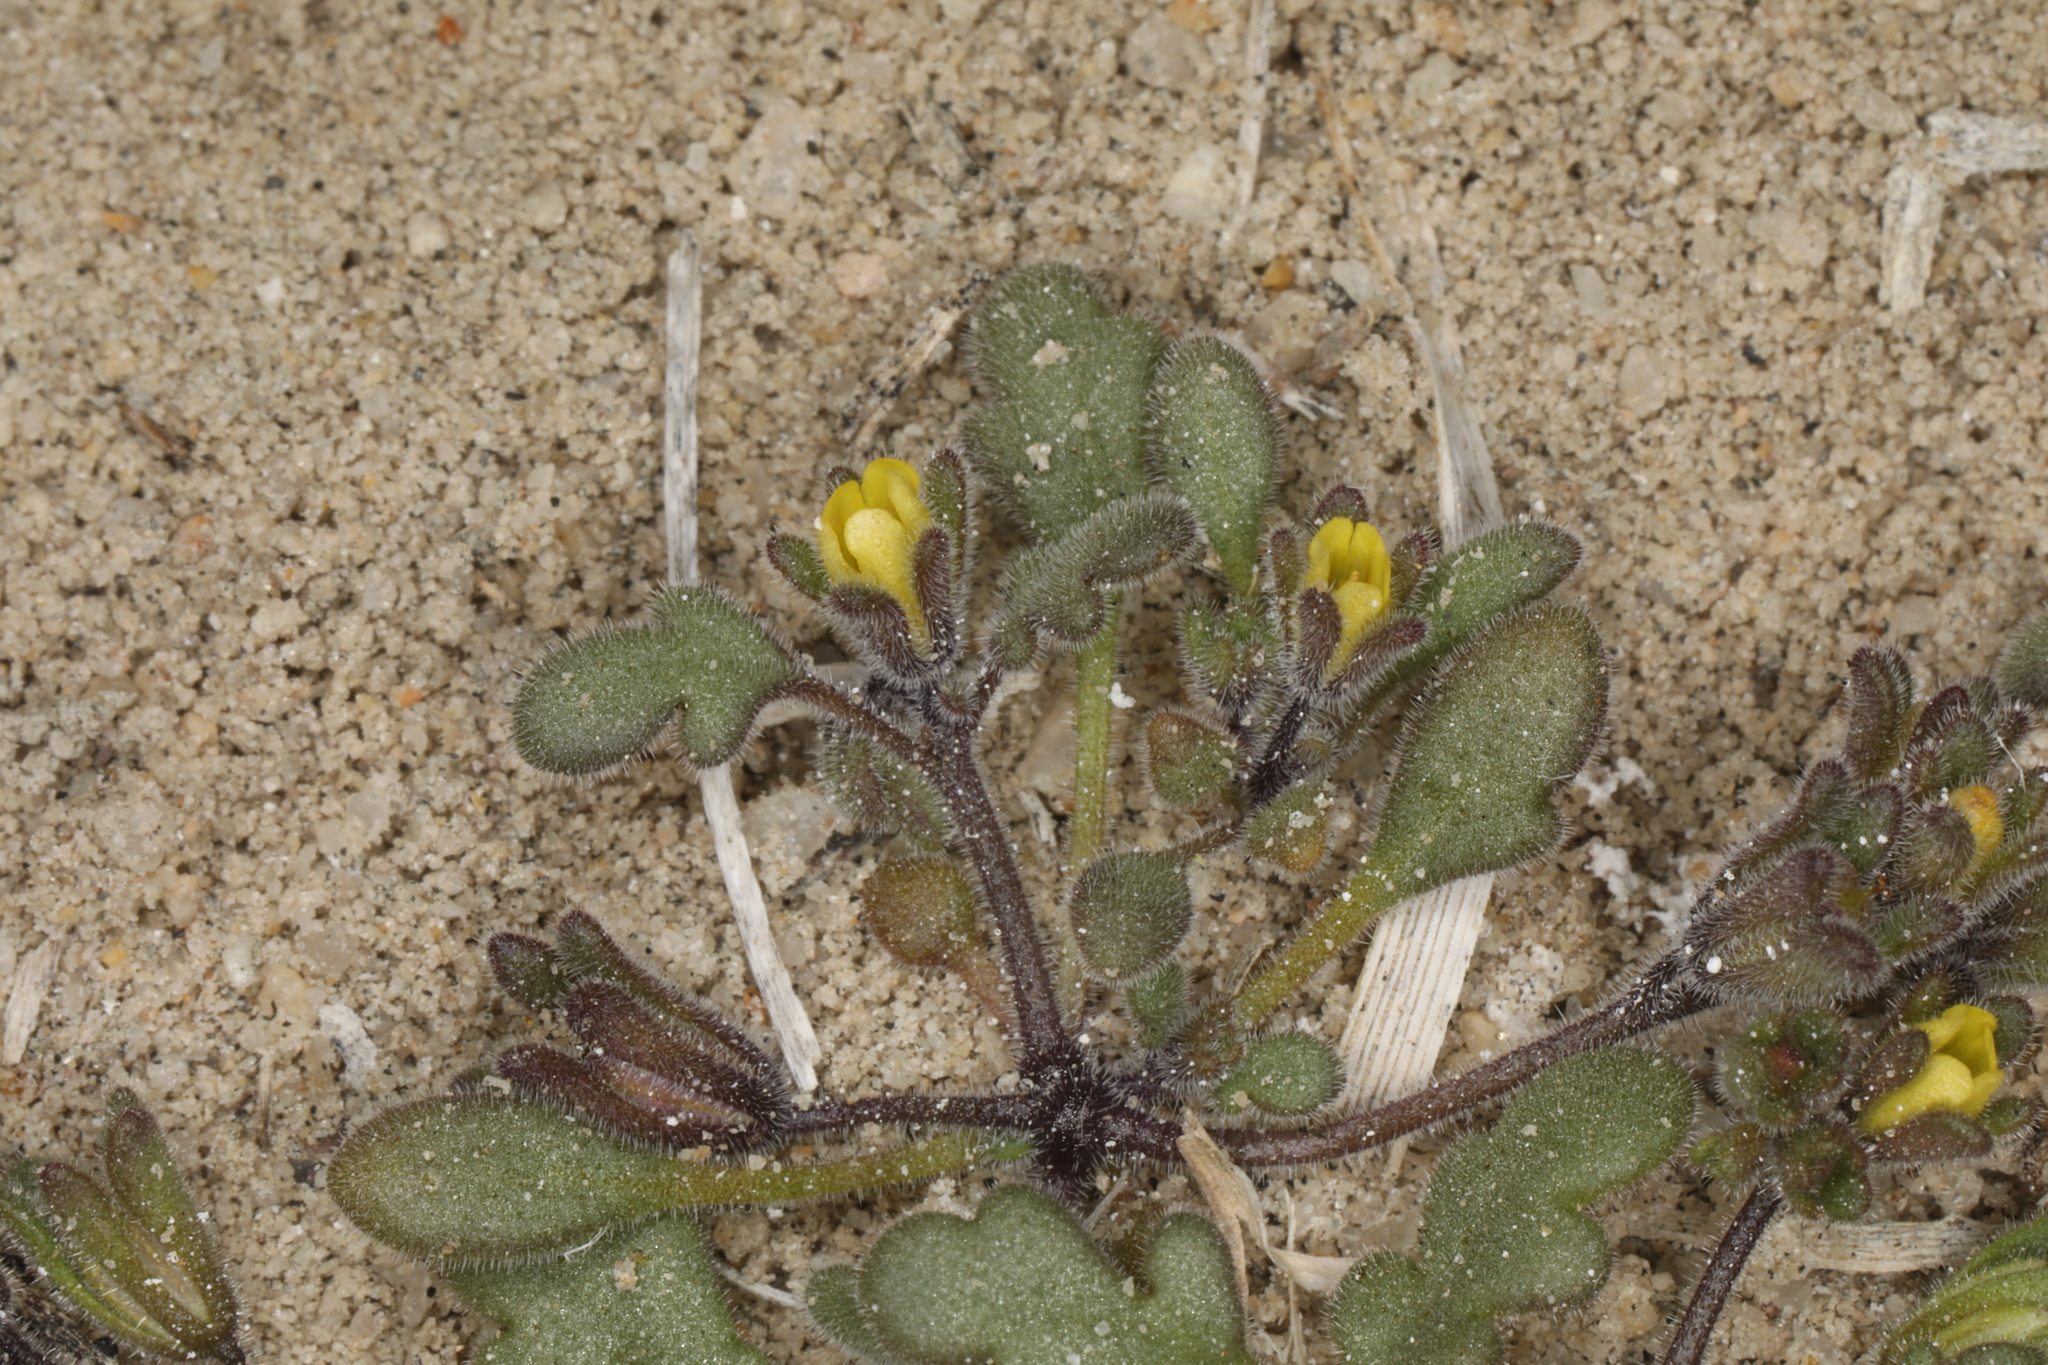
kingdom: Plantae
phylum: Tracheophyta
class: Magnoliopsida
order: Boraginales
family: Hydrophyllaceae
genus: Phacelia
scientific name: Phacelia inyoensis
